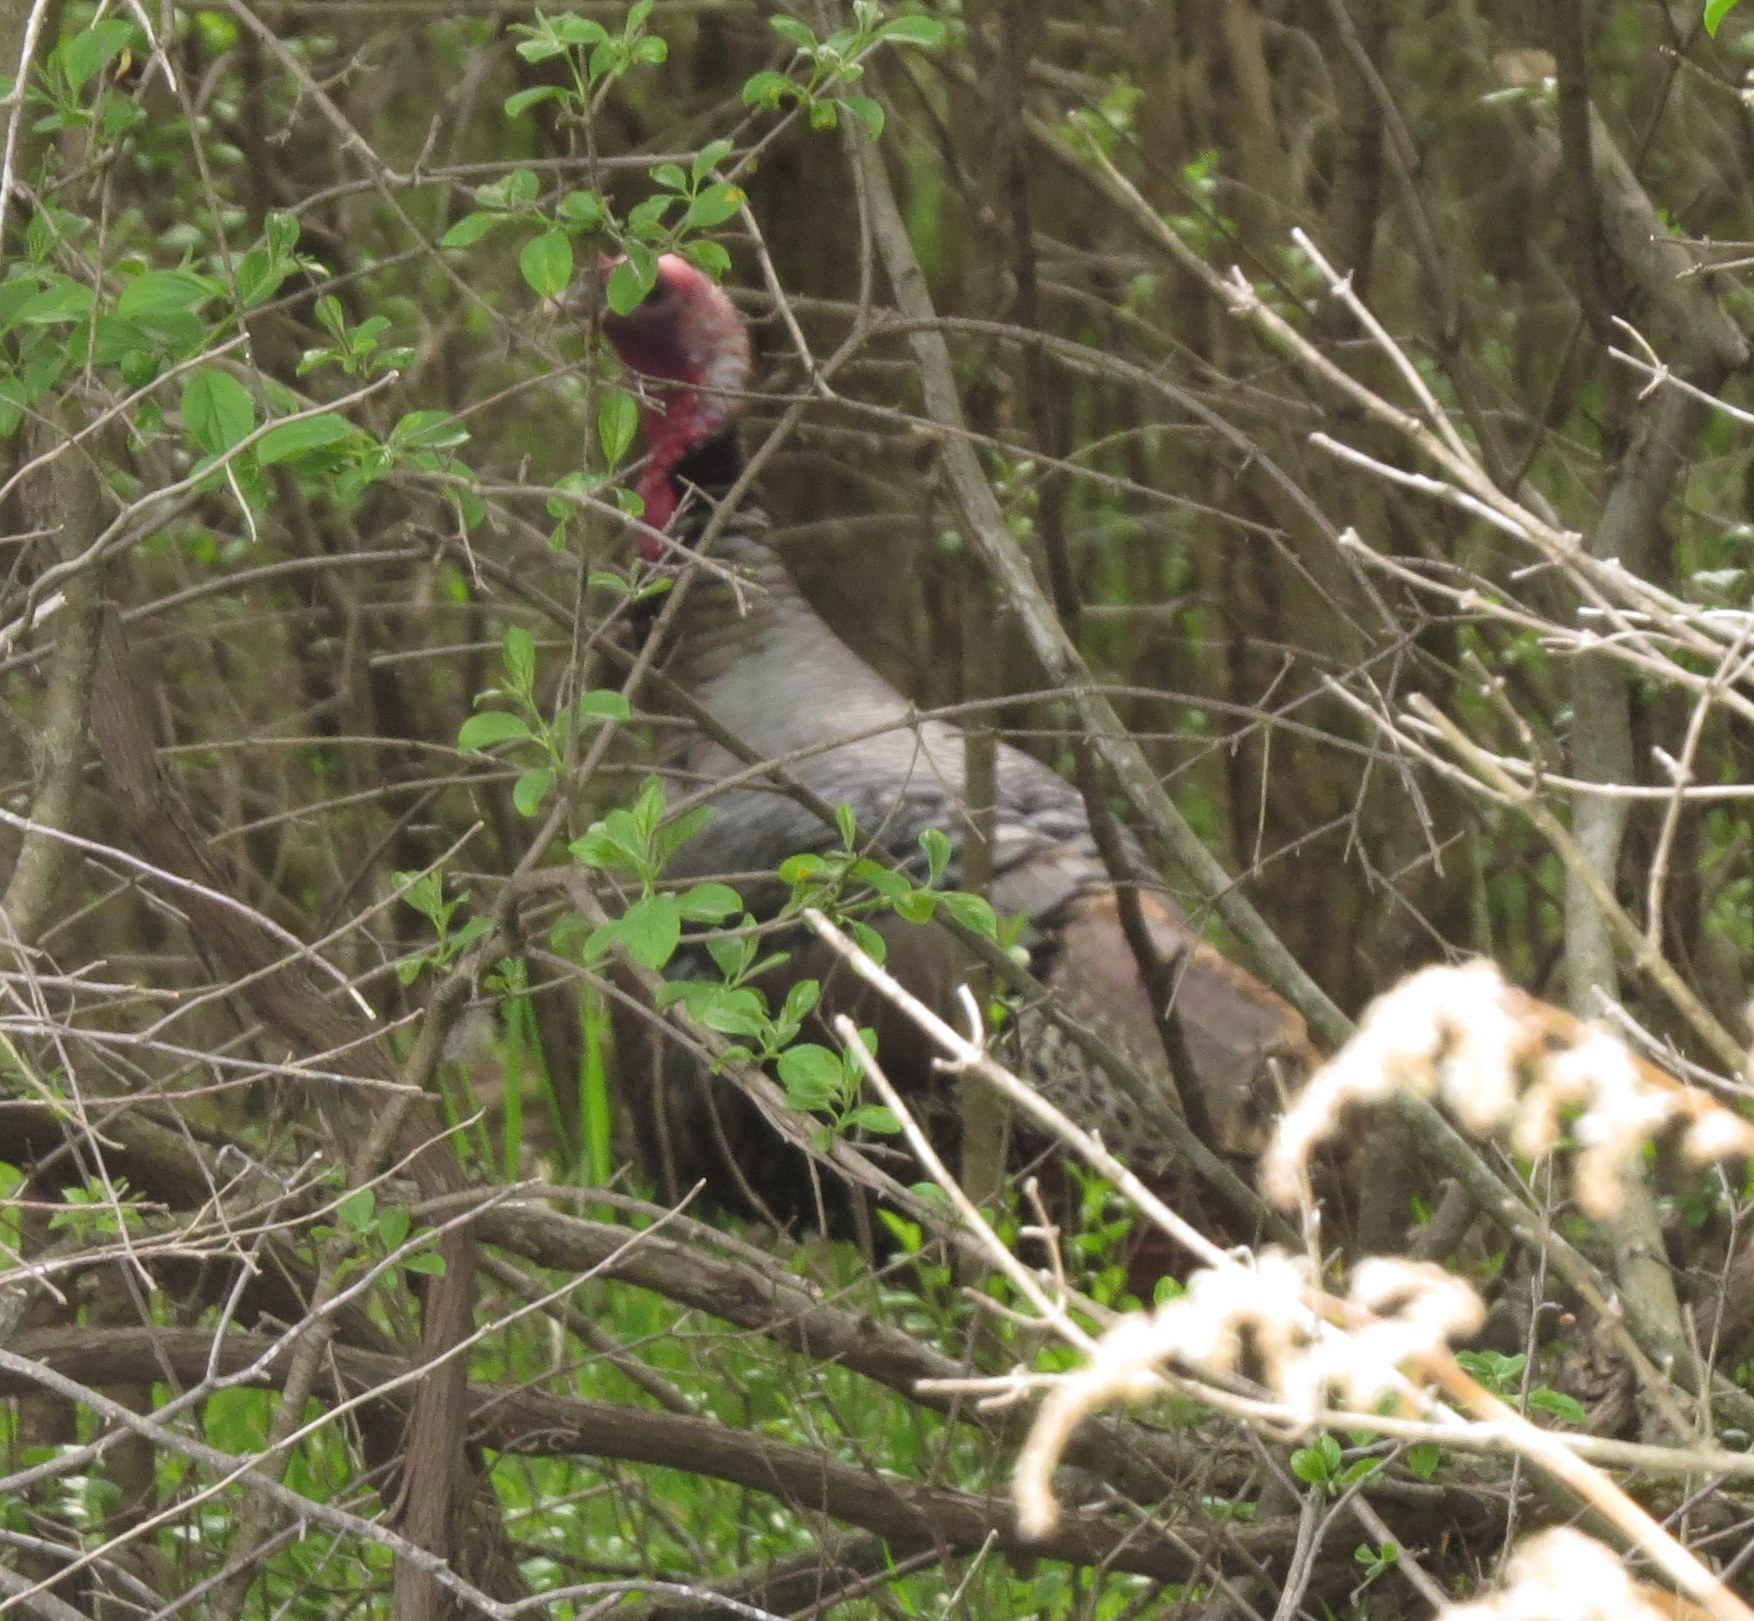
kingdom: Animalia
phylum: Chordata
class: Aves
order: Galliformes
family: Phasianidae
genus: Meleagris
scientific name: Meleagris gallopavo
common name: Wild turkey
